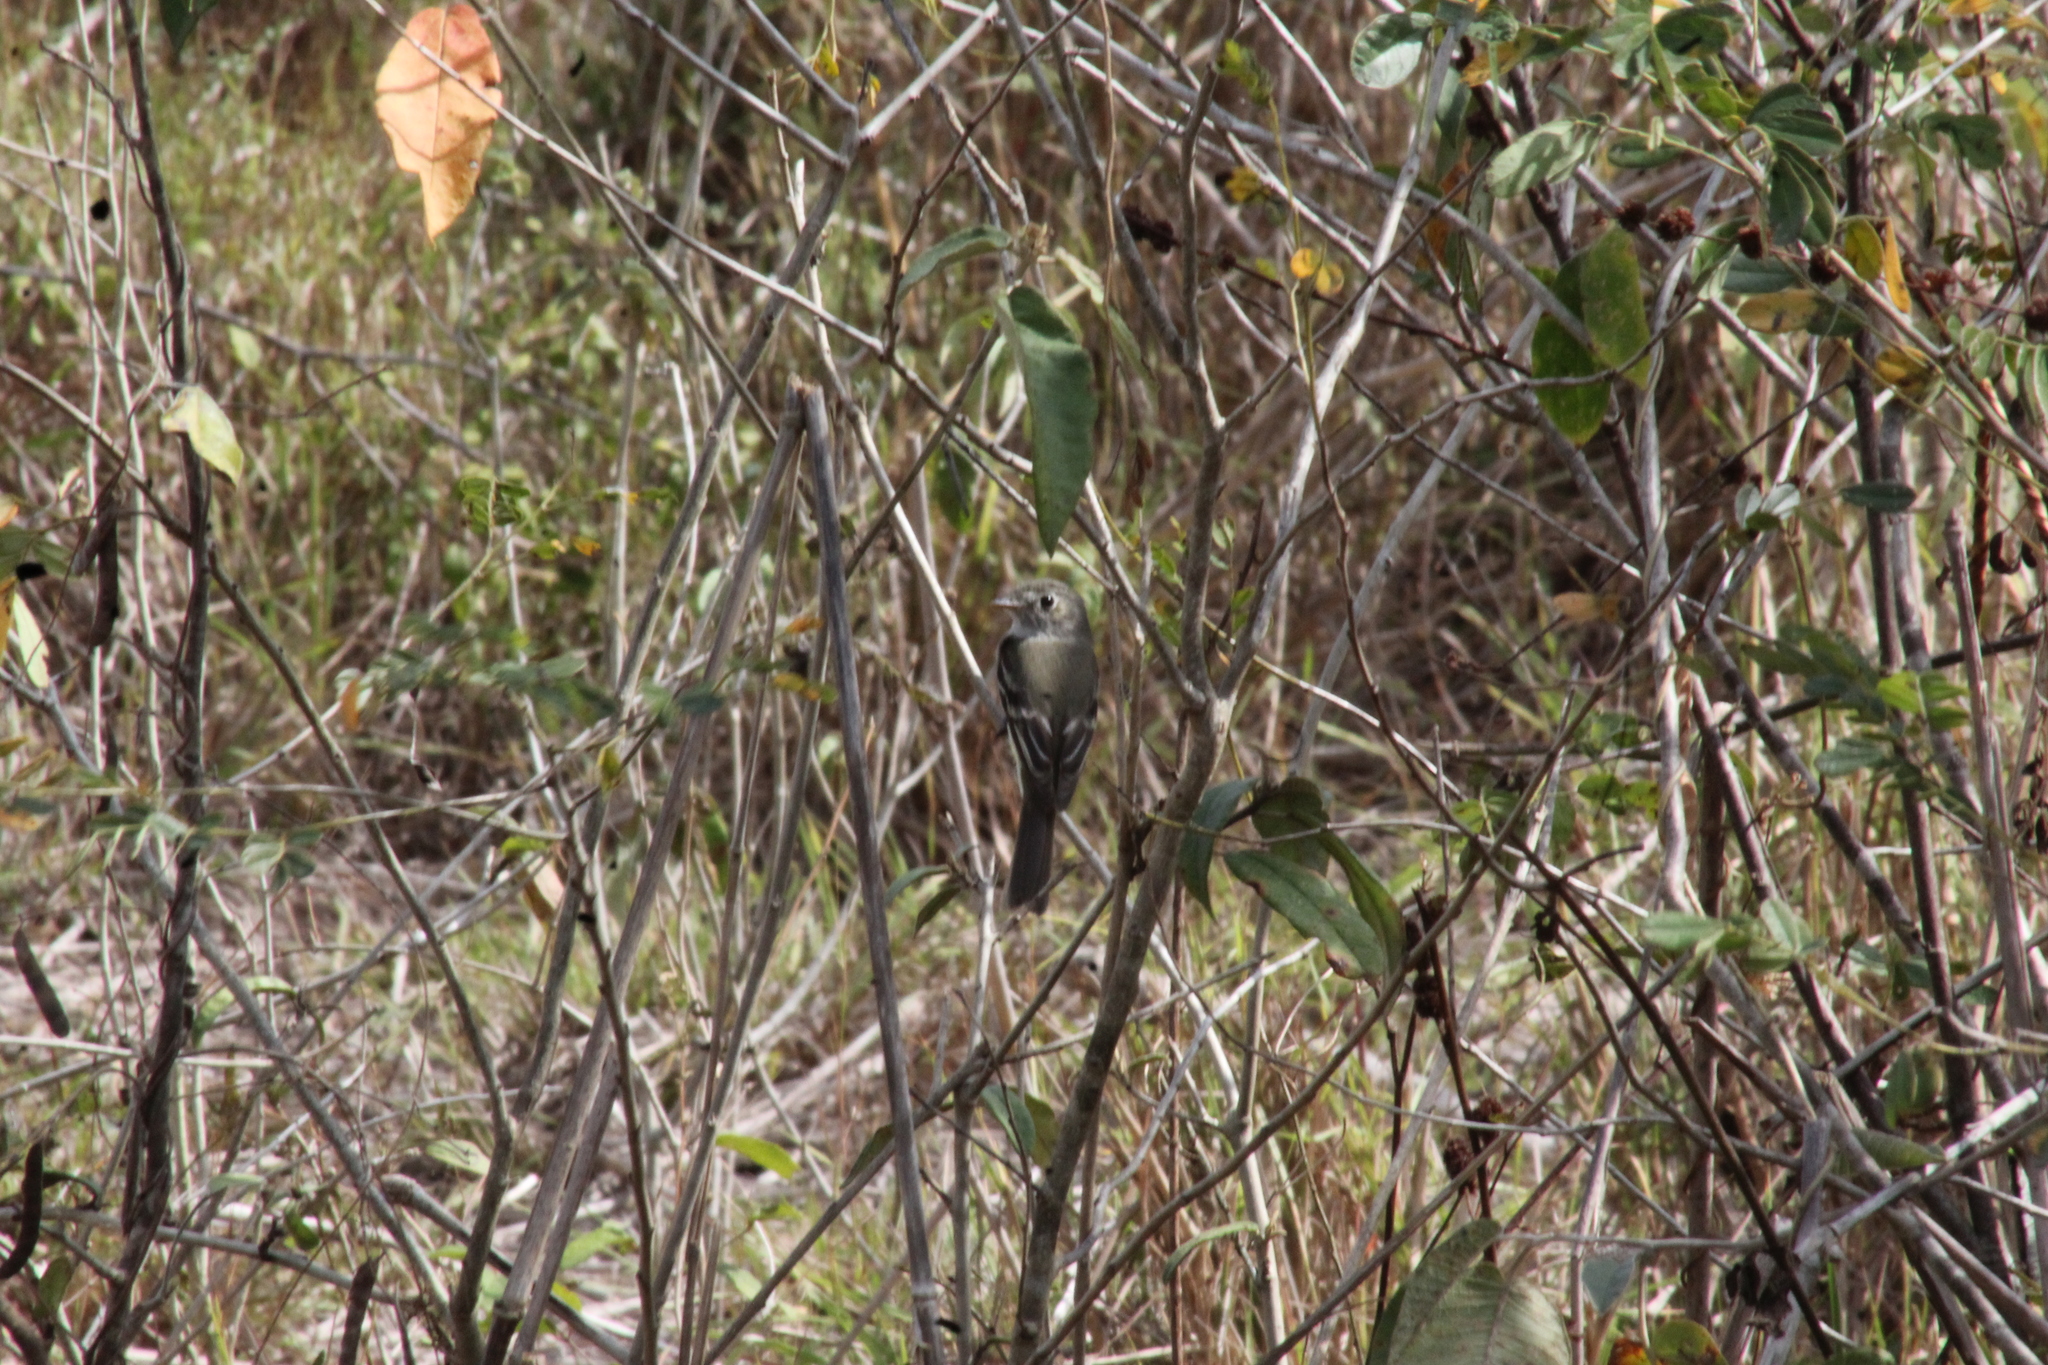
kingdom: Animalia
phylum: Chordata
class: Aves
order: Passeriformes
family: Tyrannidae
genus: Empidonax
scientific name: Empidonax minimus
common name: Least flycatcher
